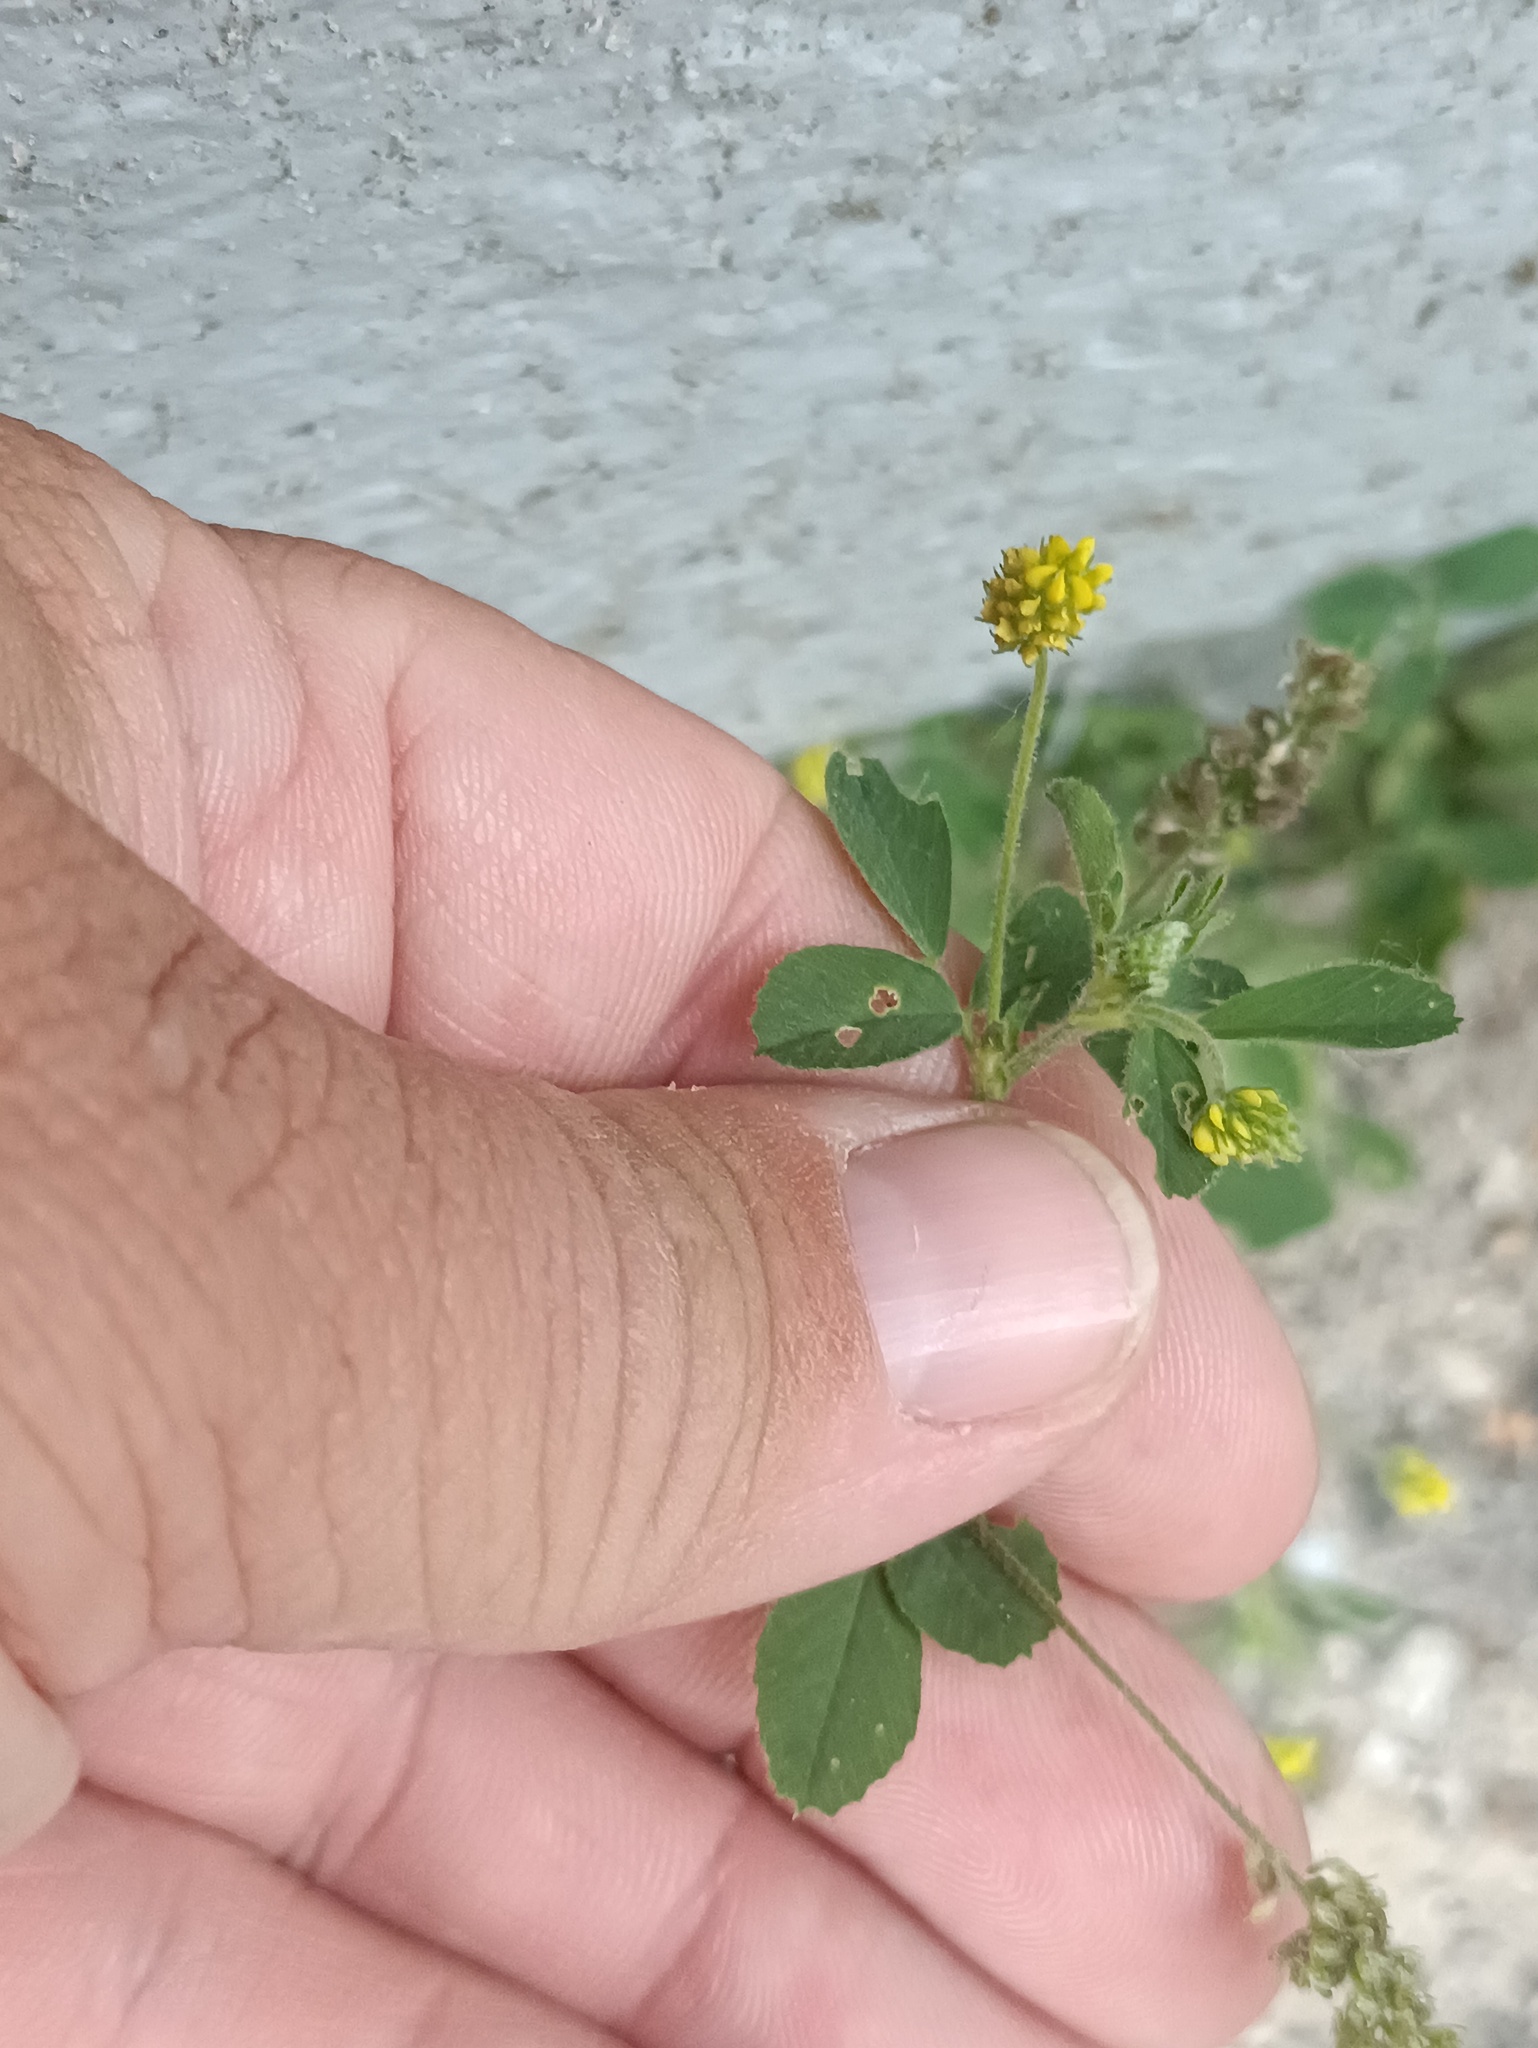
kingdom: Plantae
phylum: Tracheophyta
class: Magnoliopsida
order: Fabales
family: Fabaceae
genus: Medicago
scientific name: Medicago lupulina
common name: Black medick
